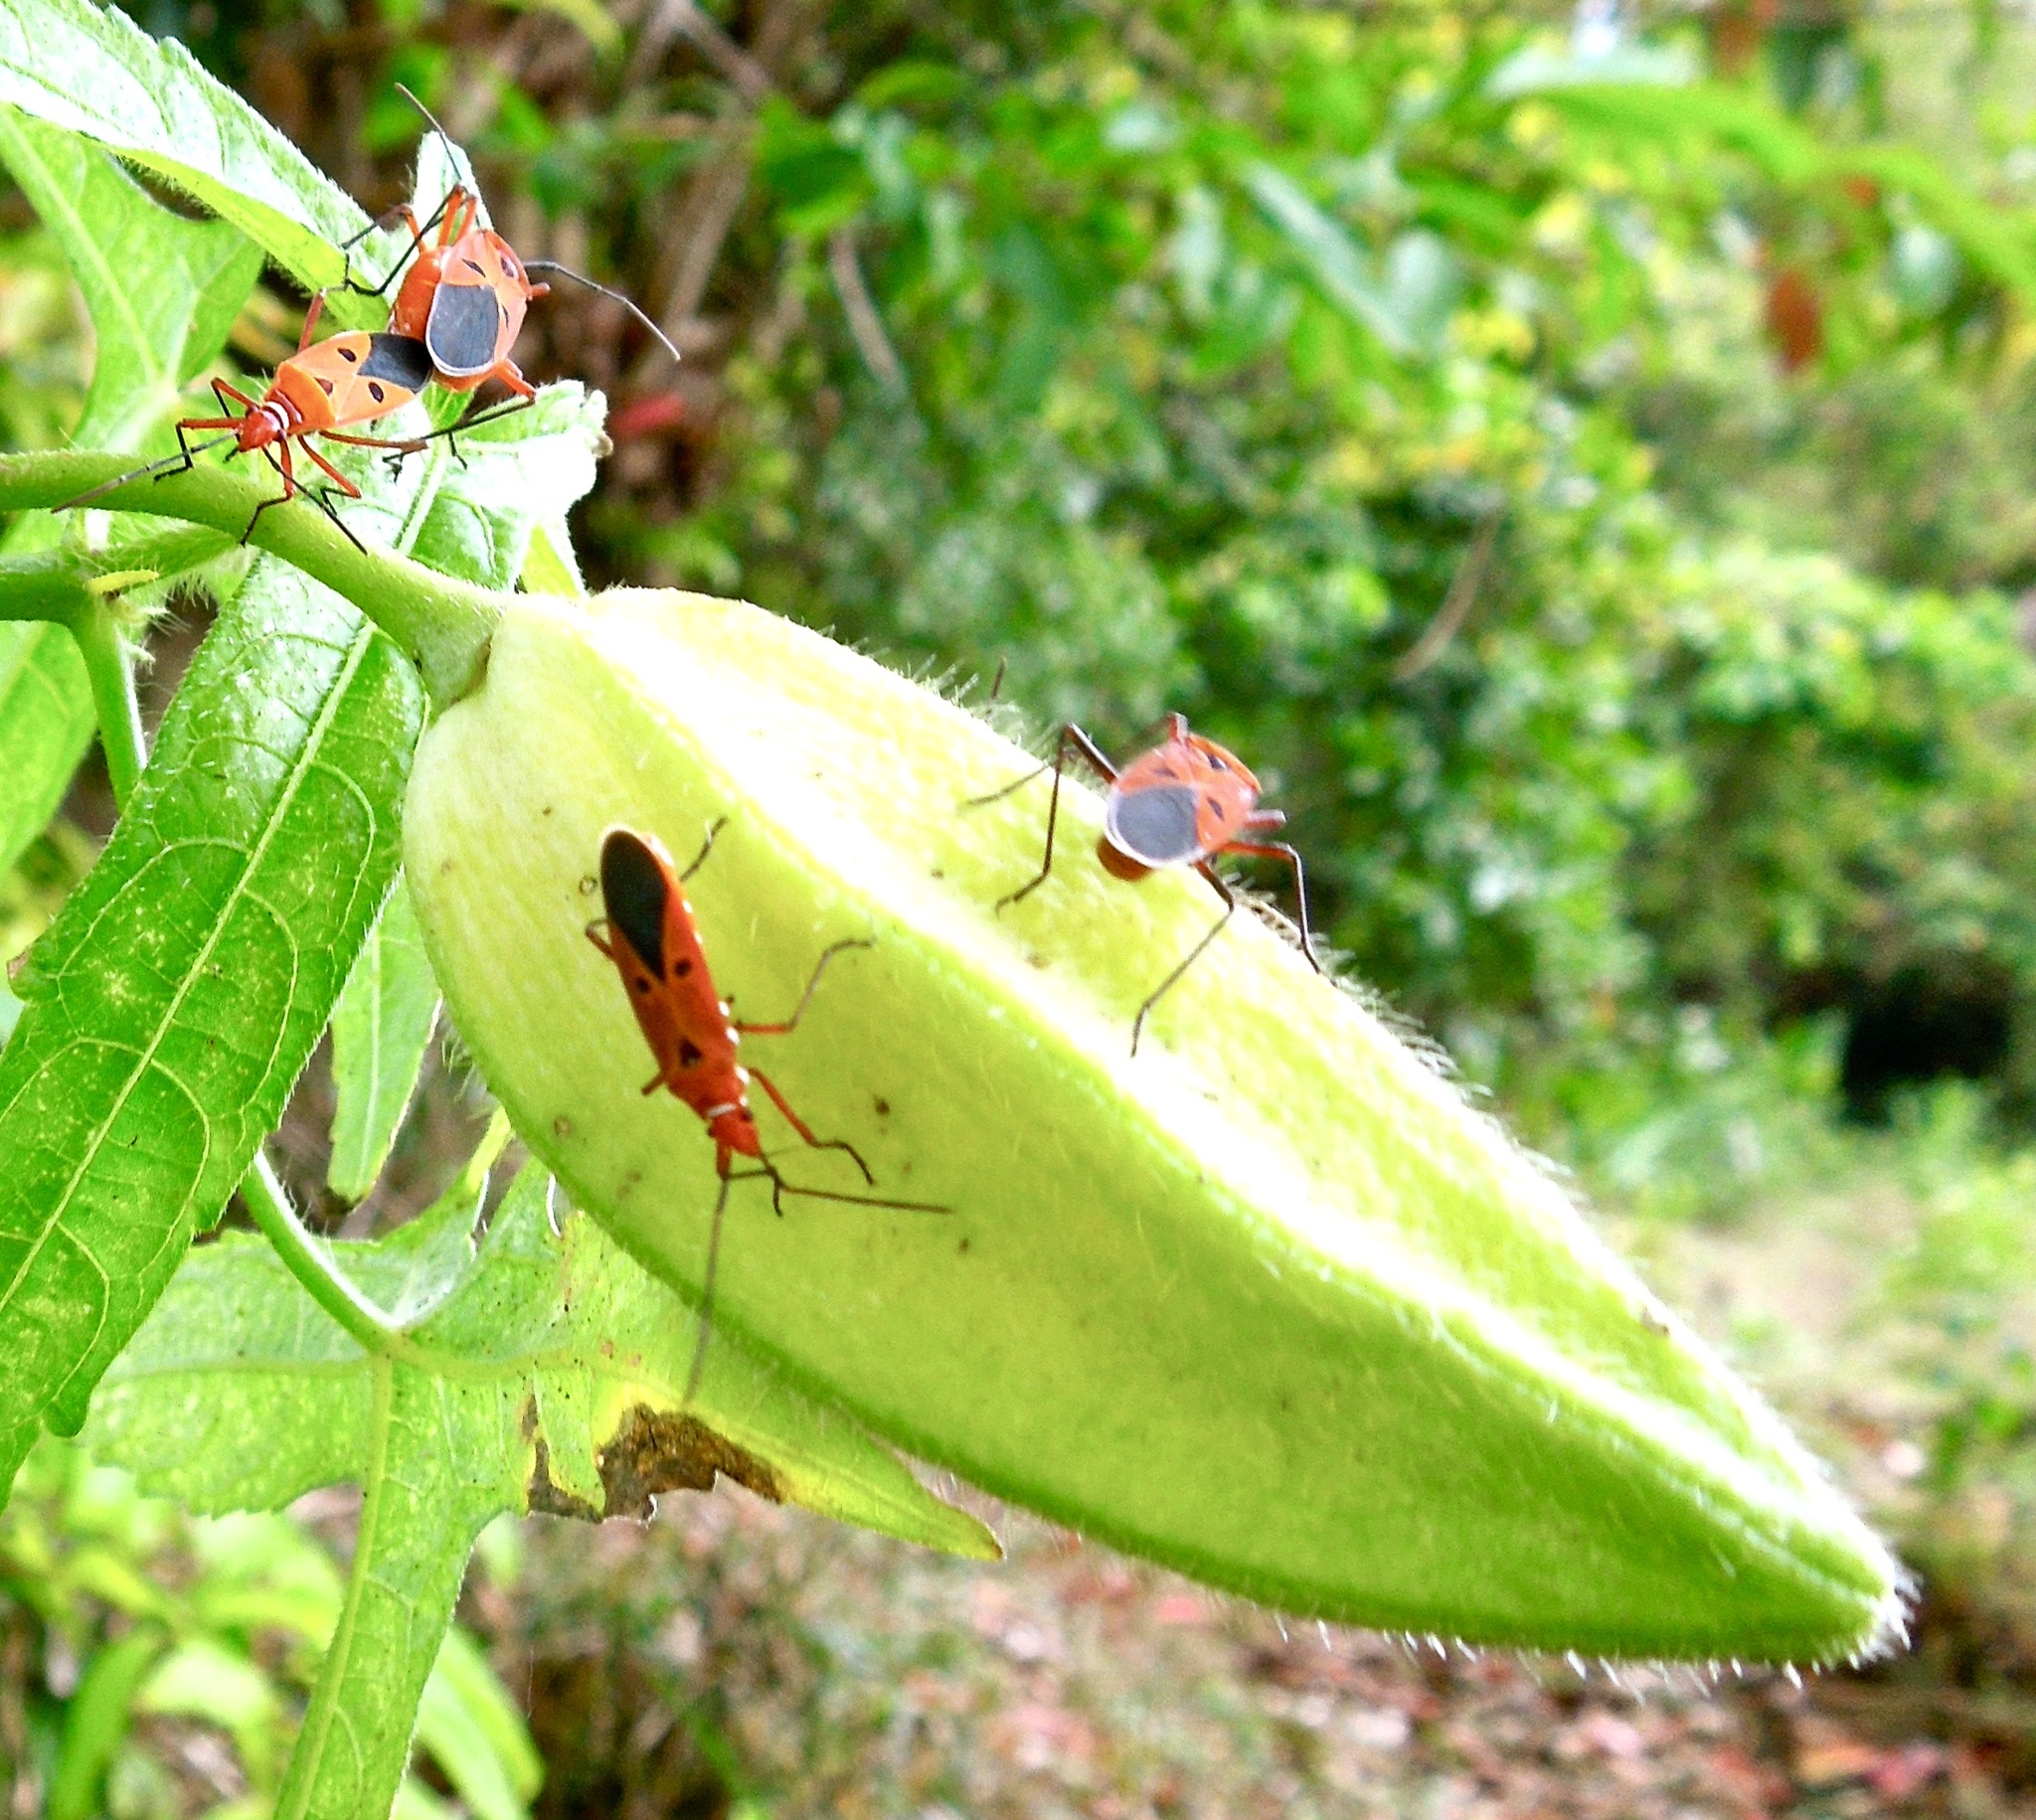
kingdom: Animalia
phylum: Arthropoda
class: Insecta
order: Hemiptera
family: Pyrrhocoridae
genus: Dysdercus
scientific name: Dysdercus cingulatus
